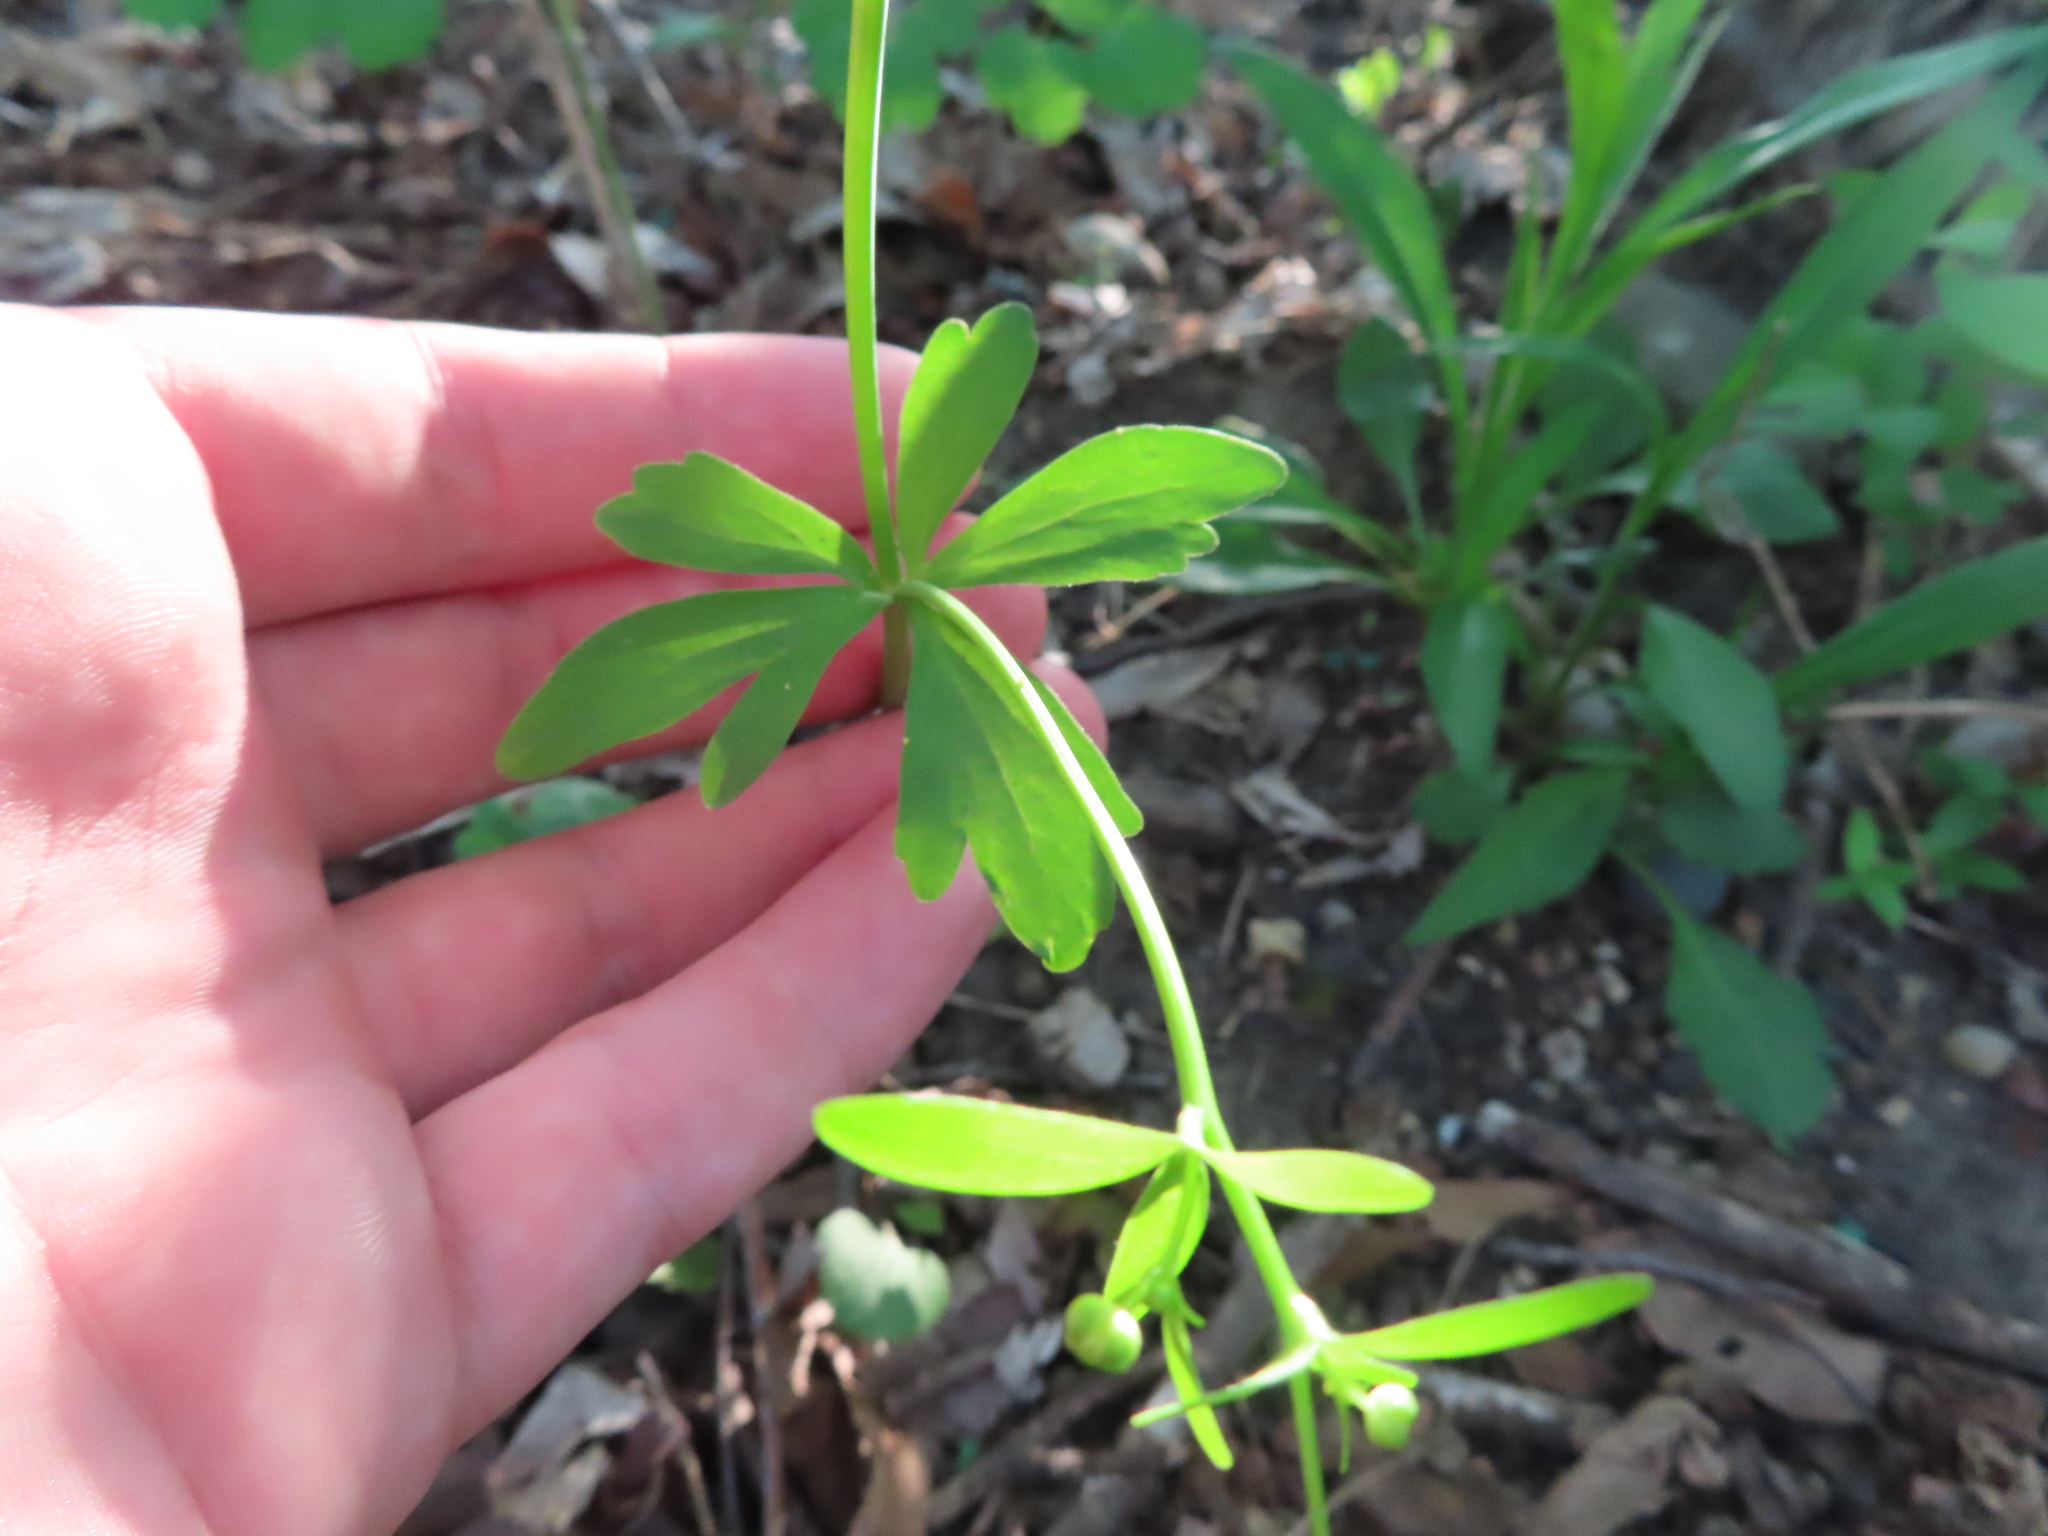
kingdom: Plantae
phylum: Tracheophyta
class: Magnoliopsida
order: Ranunculales
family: Ranunculaceae
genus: Ranunculus
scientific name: Ranunculus abortivus
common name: Early wood buttercup
